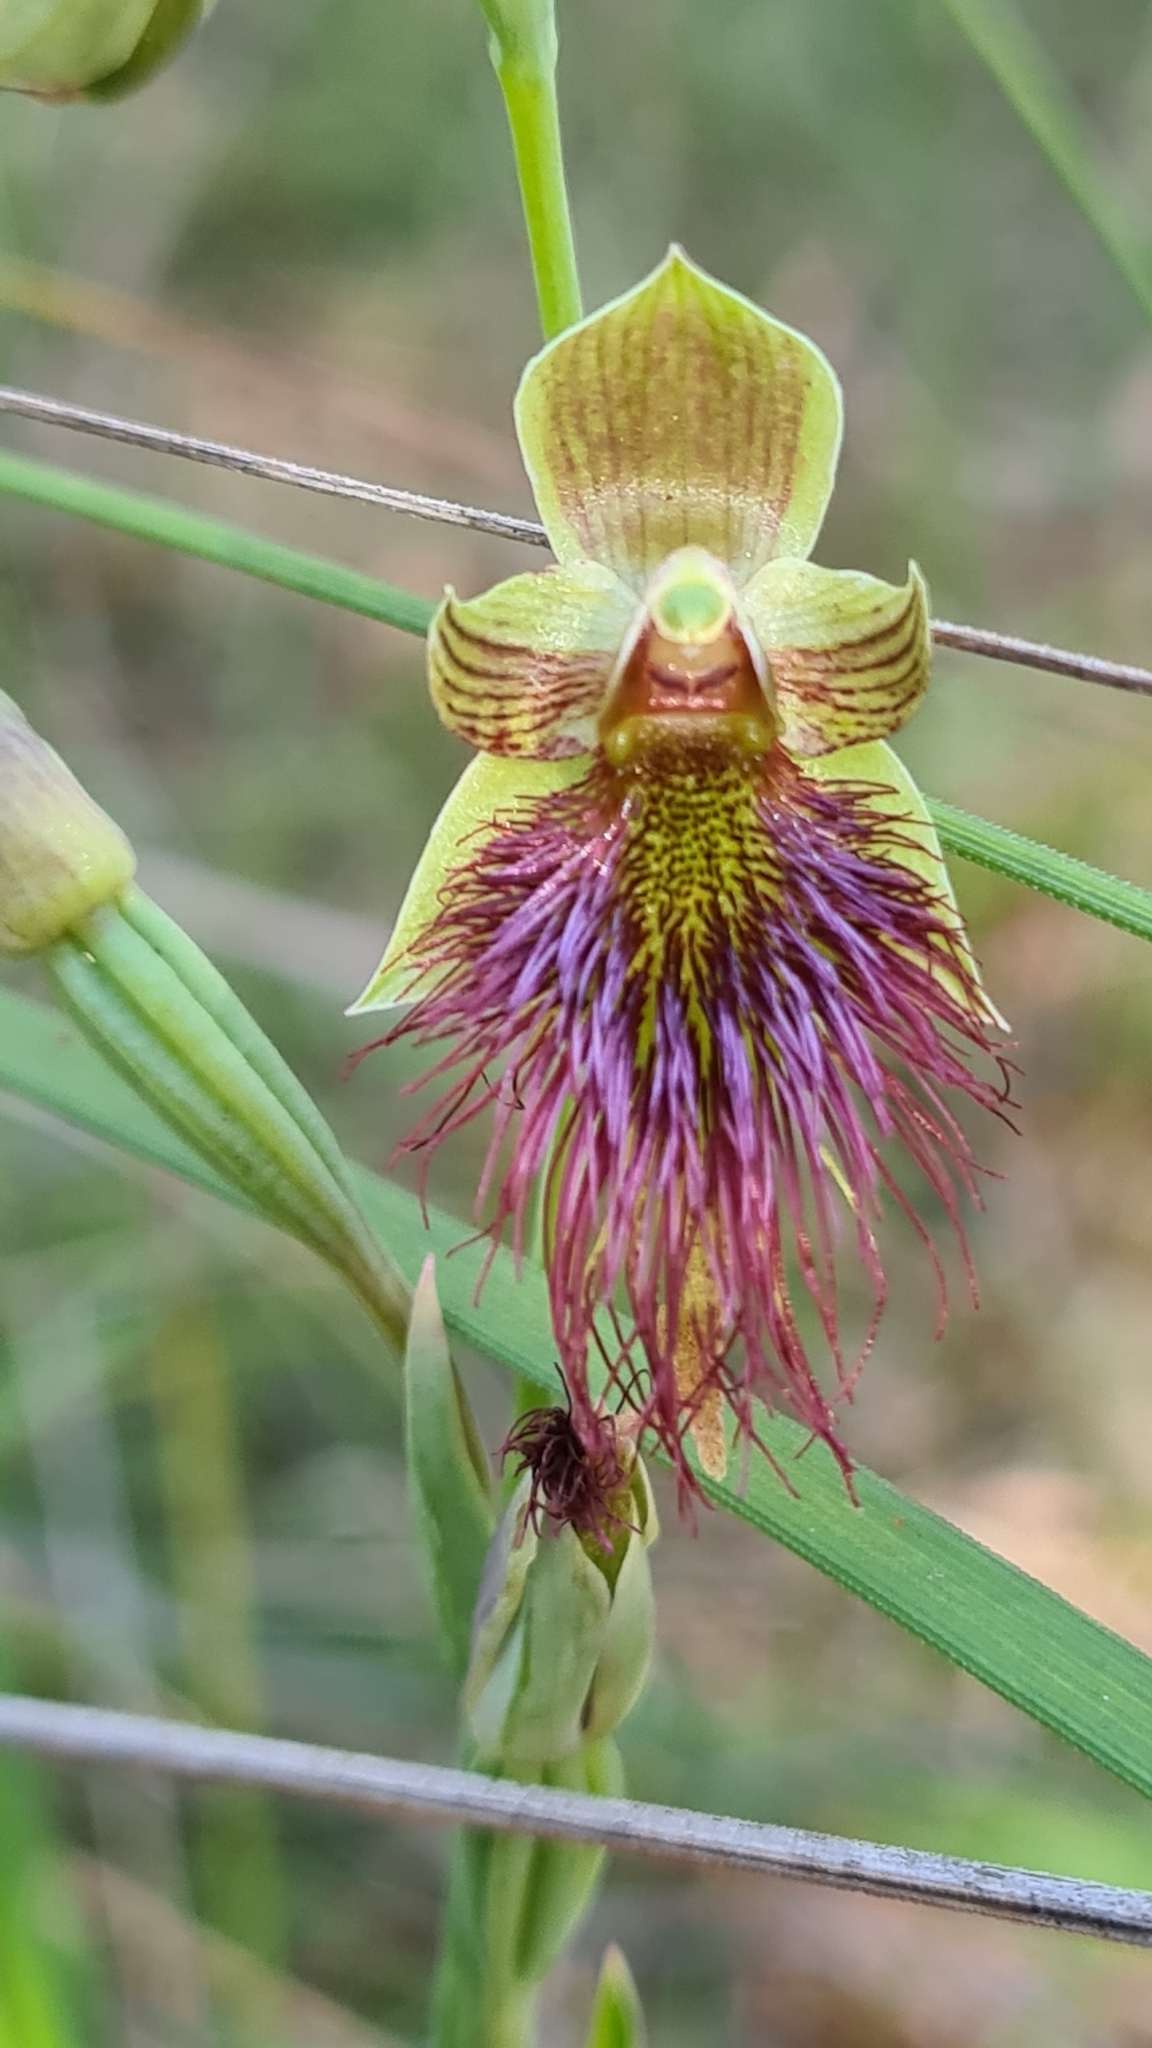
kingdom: Plantae
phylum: Tracheophyta
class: Liliopsida
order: Asparagales
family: Orchidaceae
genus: Calochilus
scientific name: Calochilus paludosus
